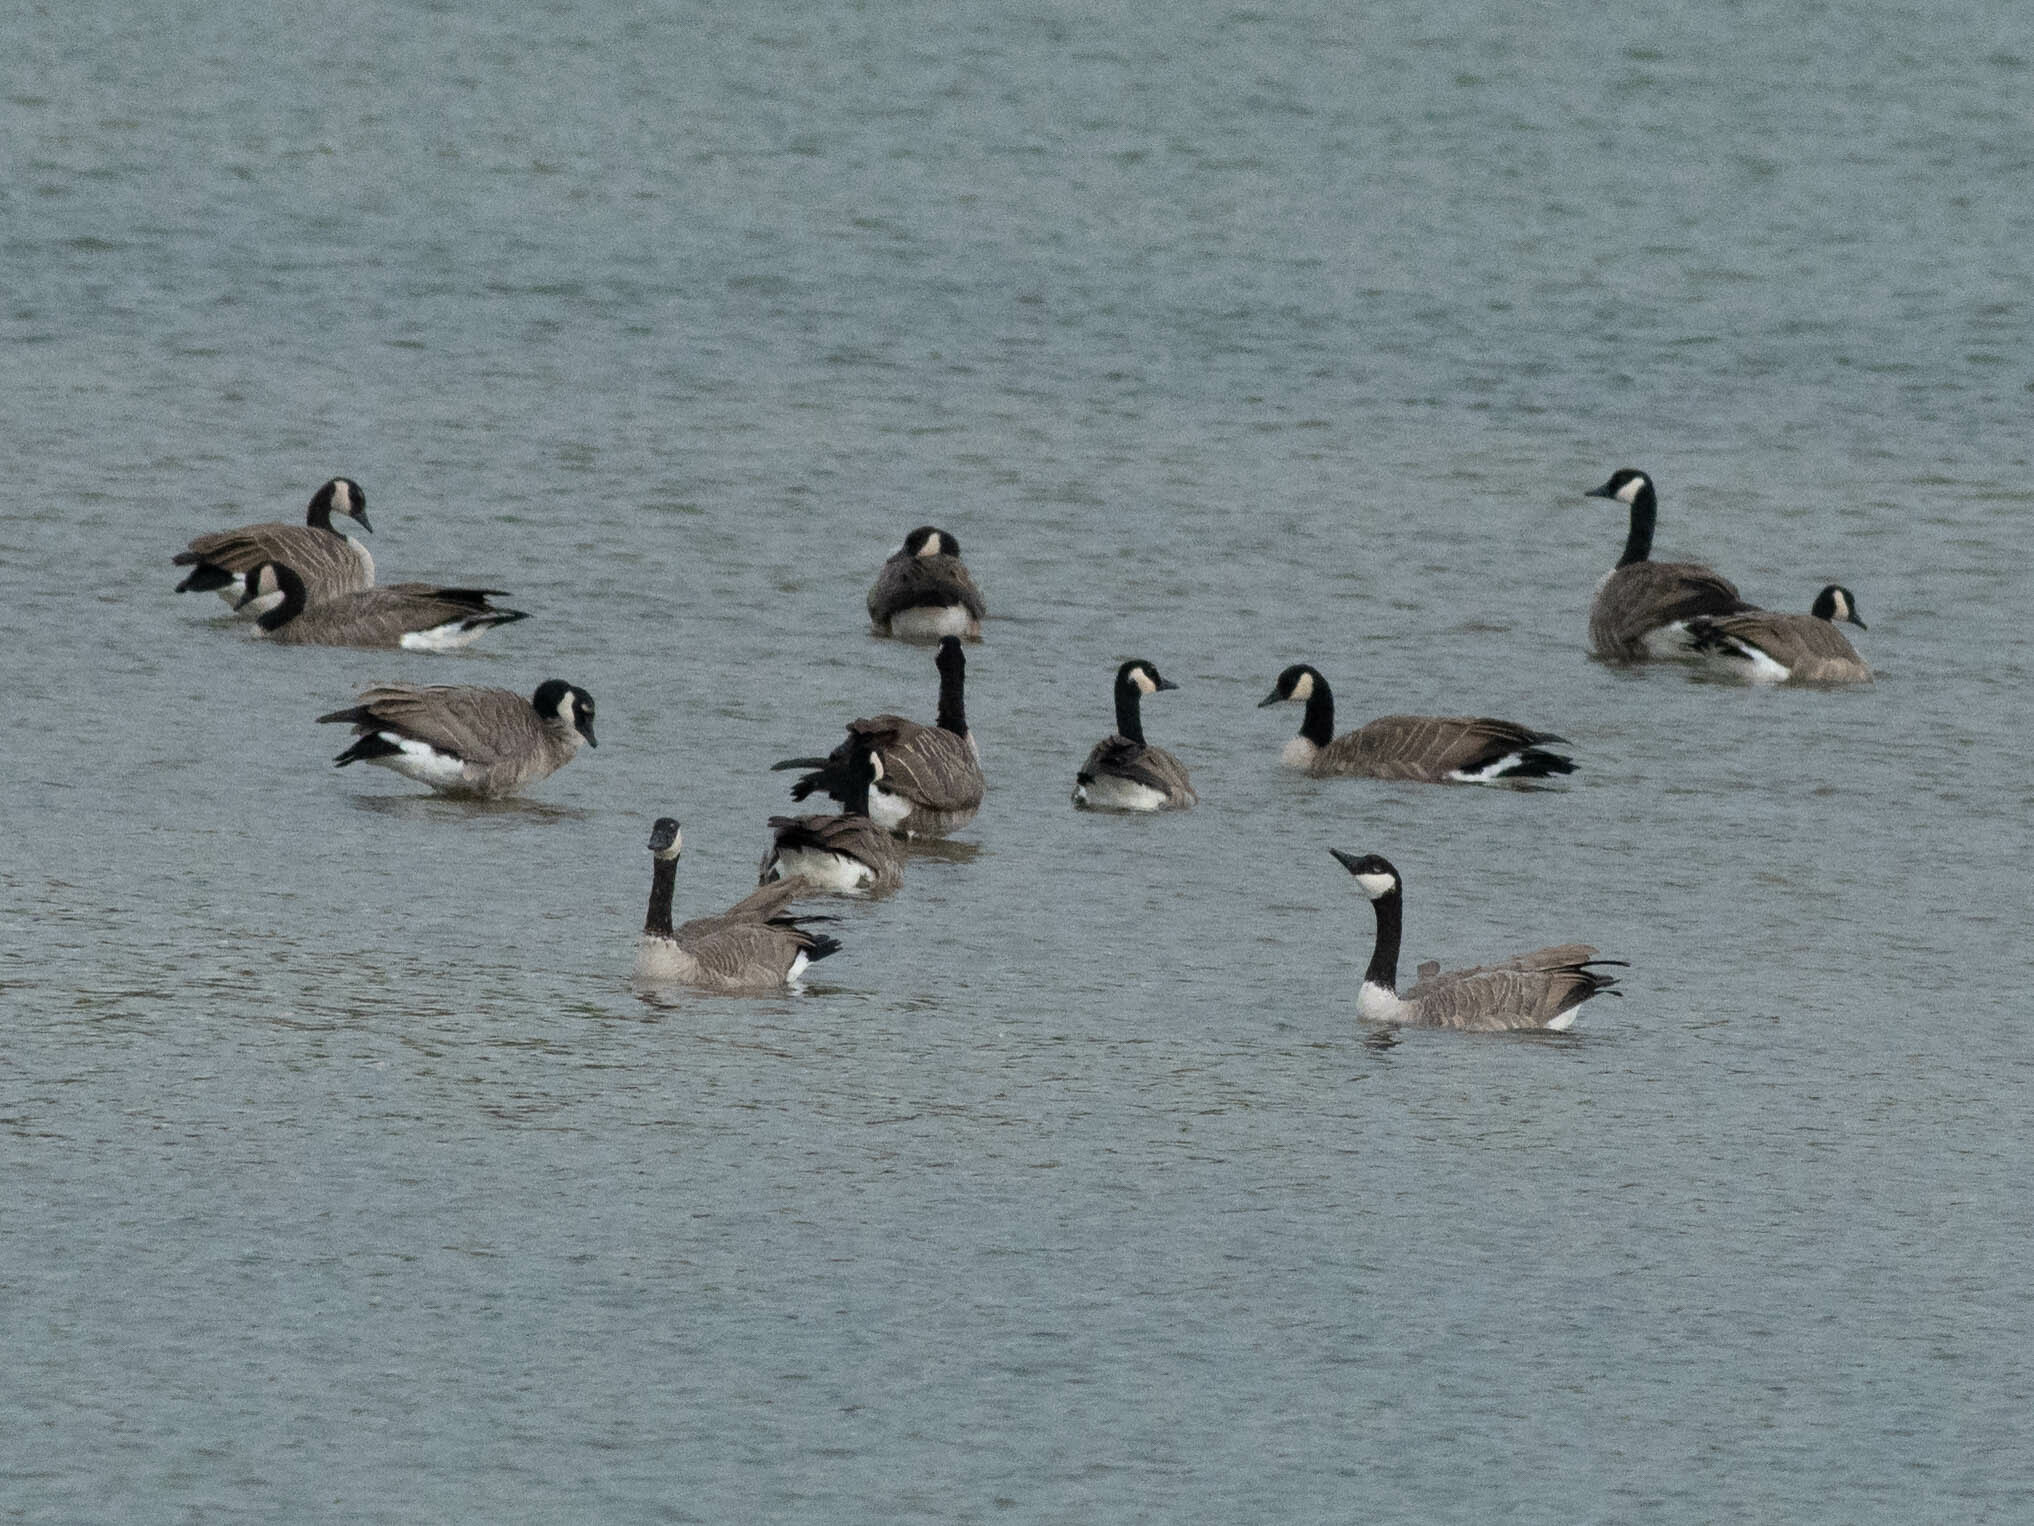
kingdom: Animalia
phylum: Chordata
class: Aves
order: Anseriformes
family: Anatidae
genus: Branta
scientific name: Branta canadensis
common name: Canada goose
